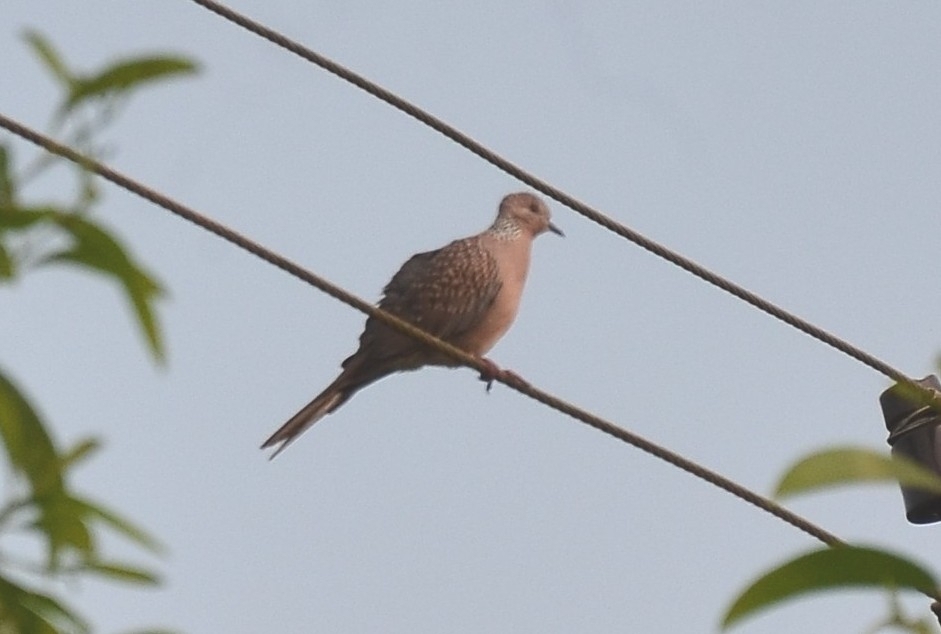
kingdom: Animalia
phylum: Chordata
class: Aves
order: Columbiformes
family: Columbidae
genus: Spilopelia
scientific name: Spilopelia chinensis
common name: Spotted dove
